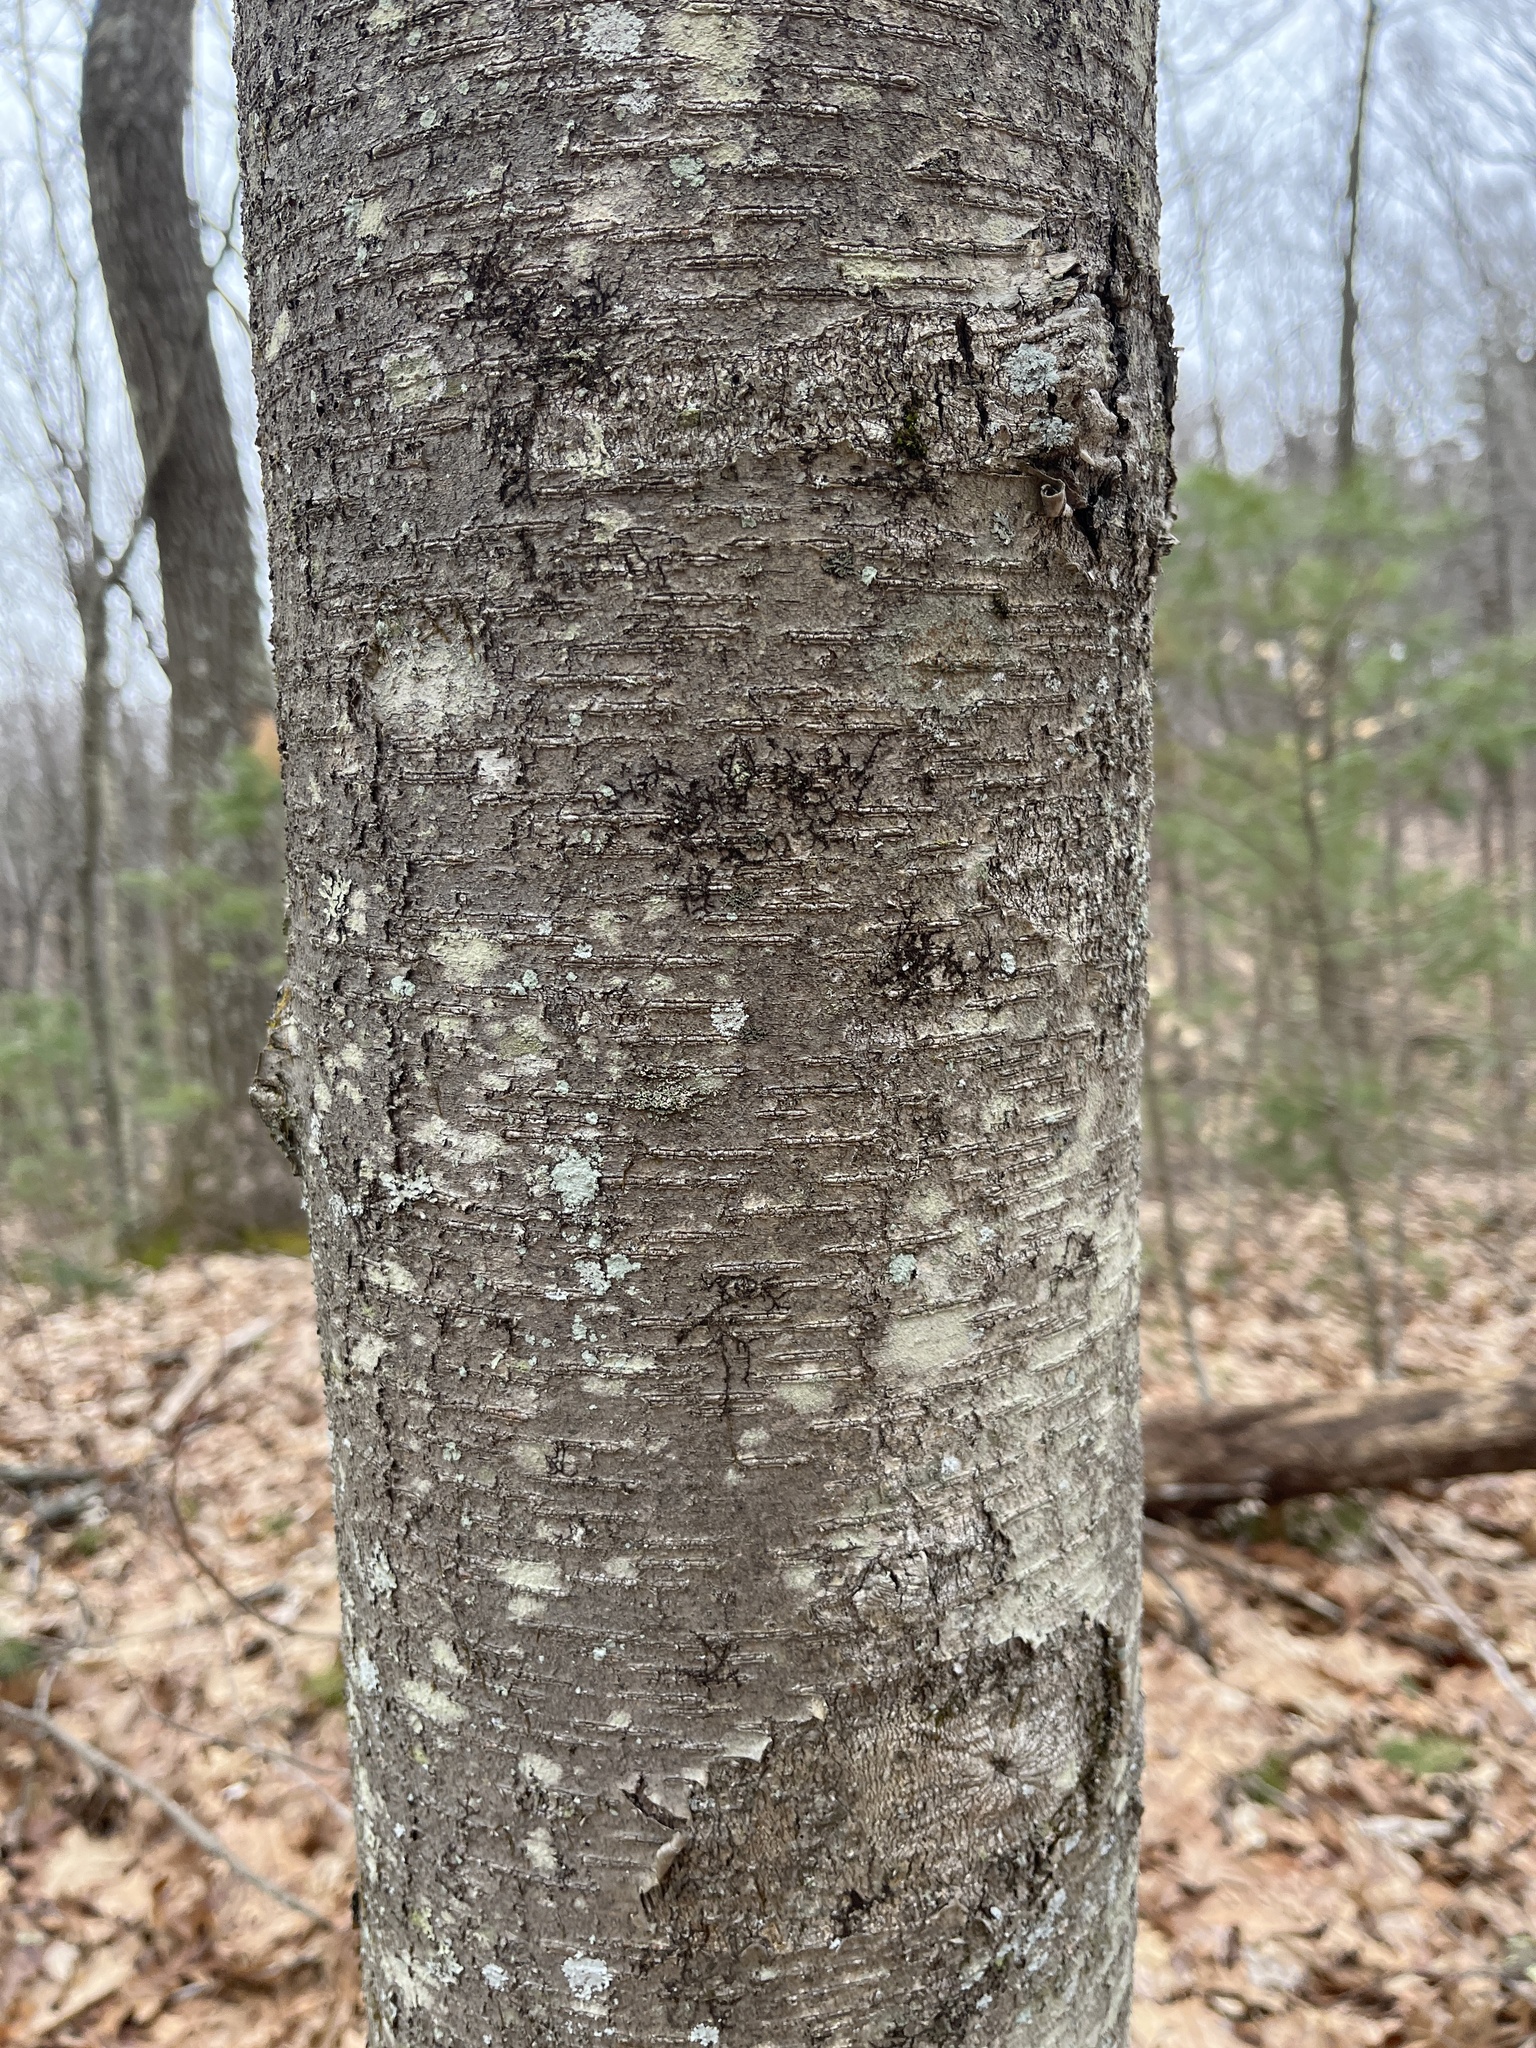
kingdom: Plantae
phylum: Tracheophyta
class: Magnoliopsida
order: Fagales
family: Betulaceae
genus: Betula
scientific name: Betula lenta
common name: Black birch
